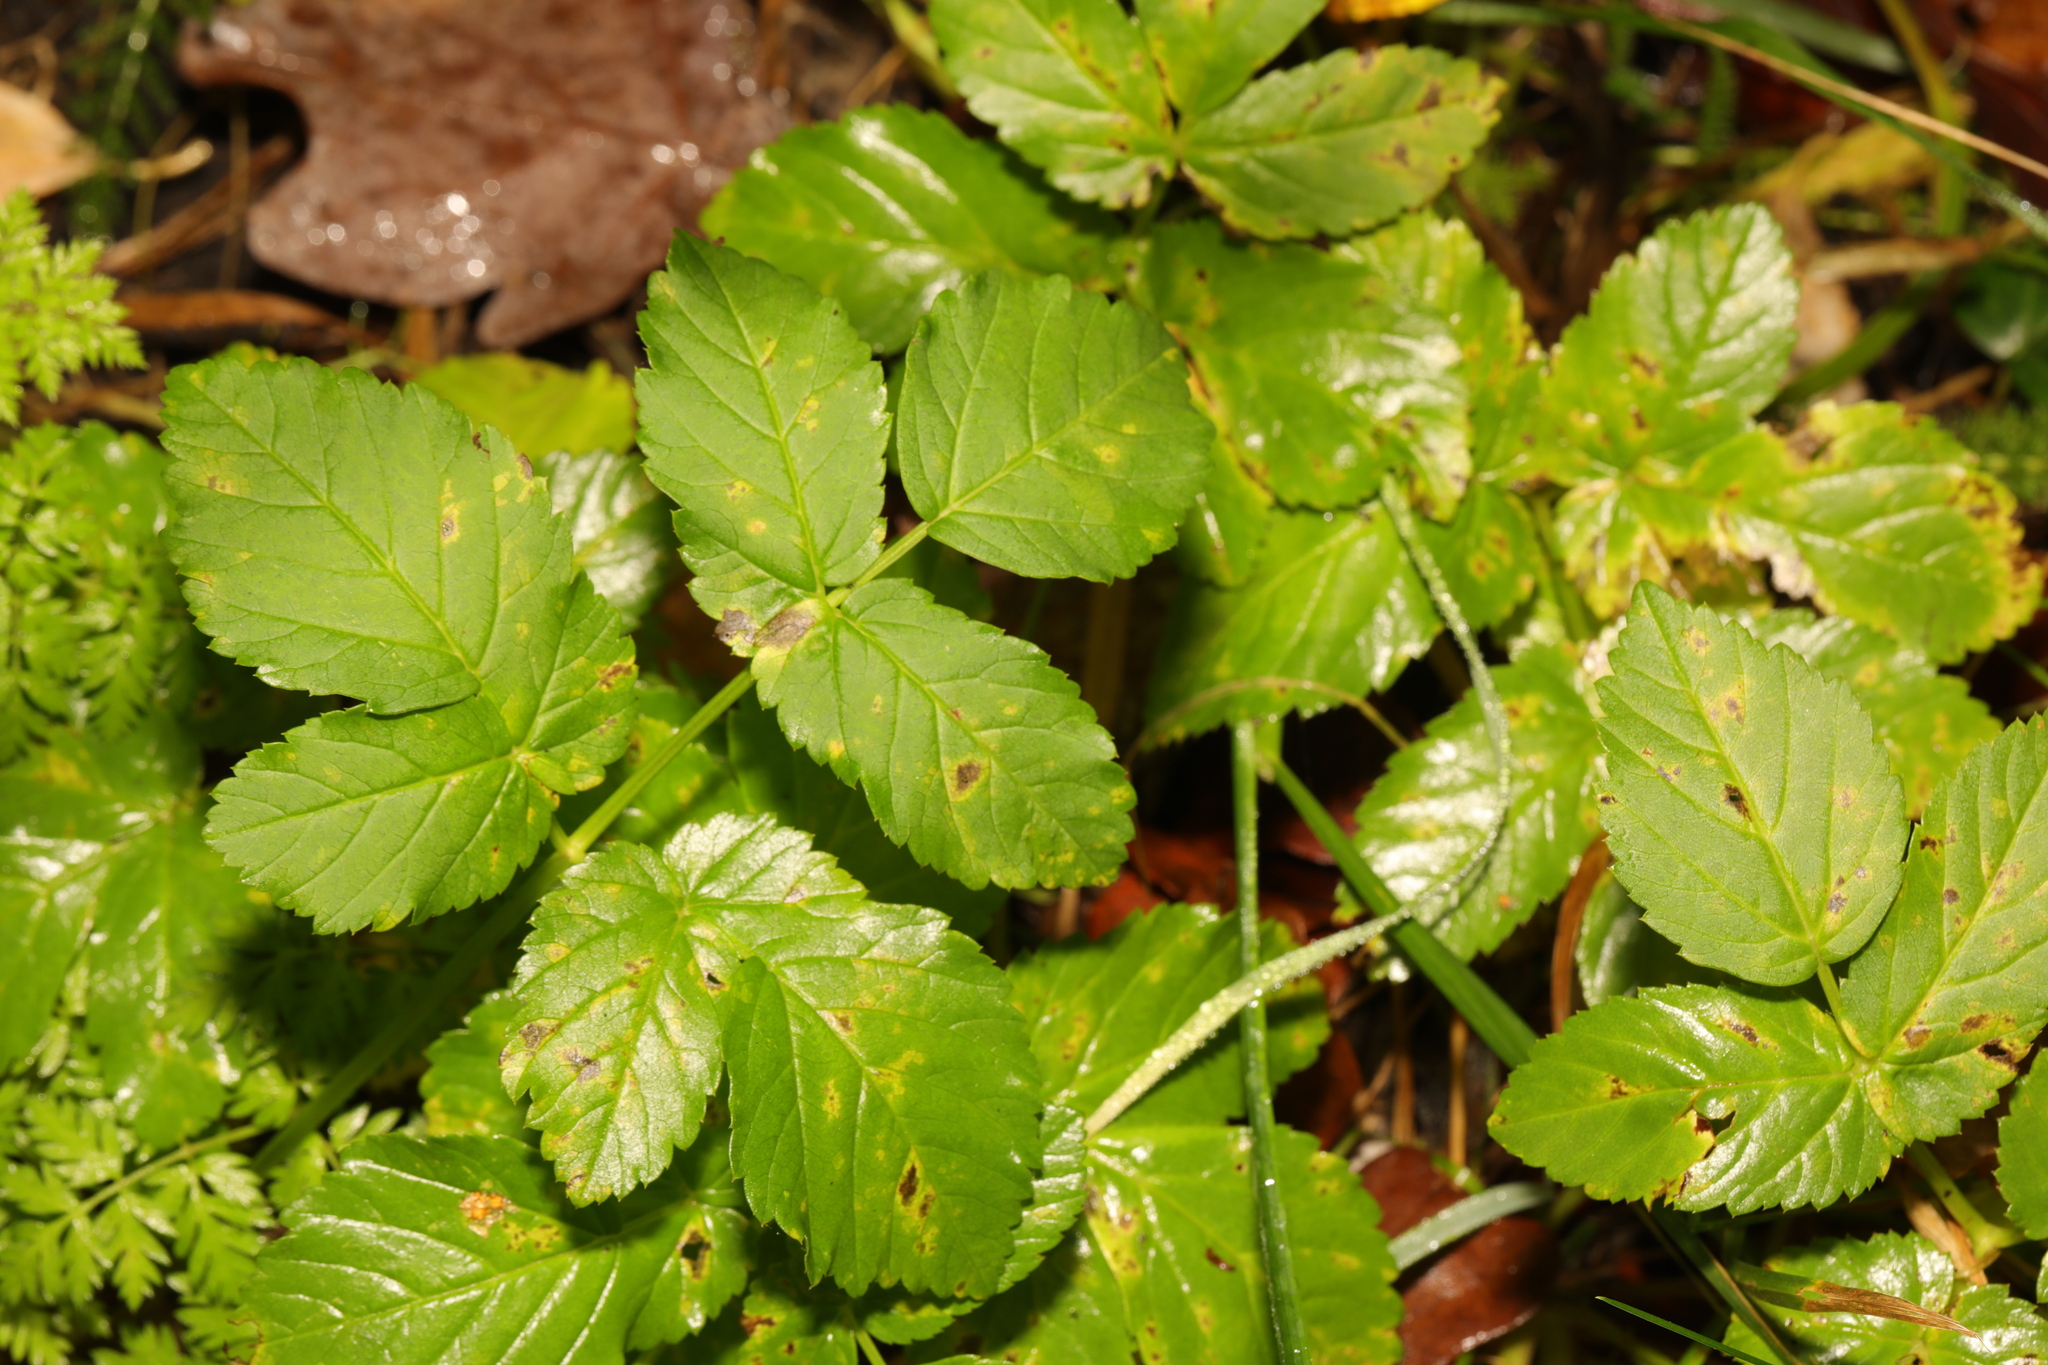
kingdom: Plantae
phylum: Tracheophyta
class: Magnoliopsida
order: Apiales
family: Apiaceae
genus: Aegopodium
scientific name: Aegopodium podagraria
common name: Ground-elder
